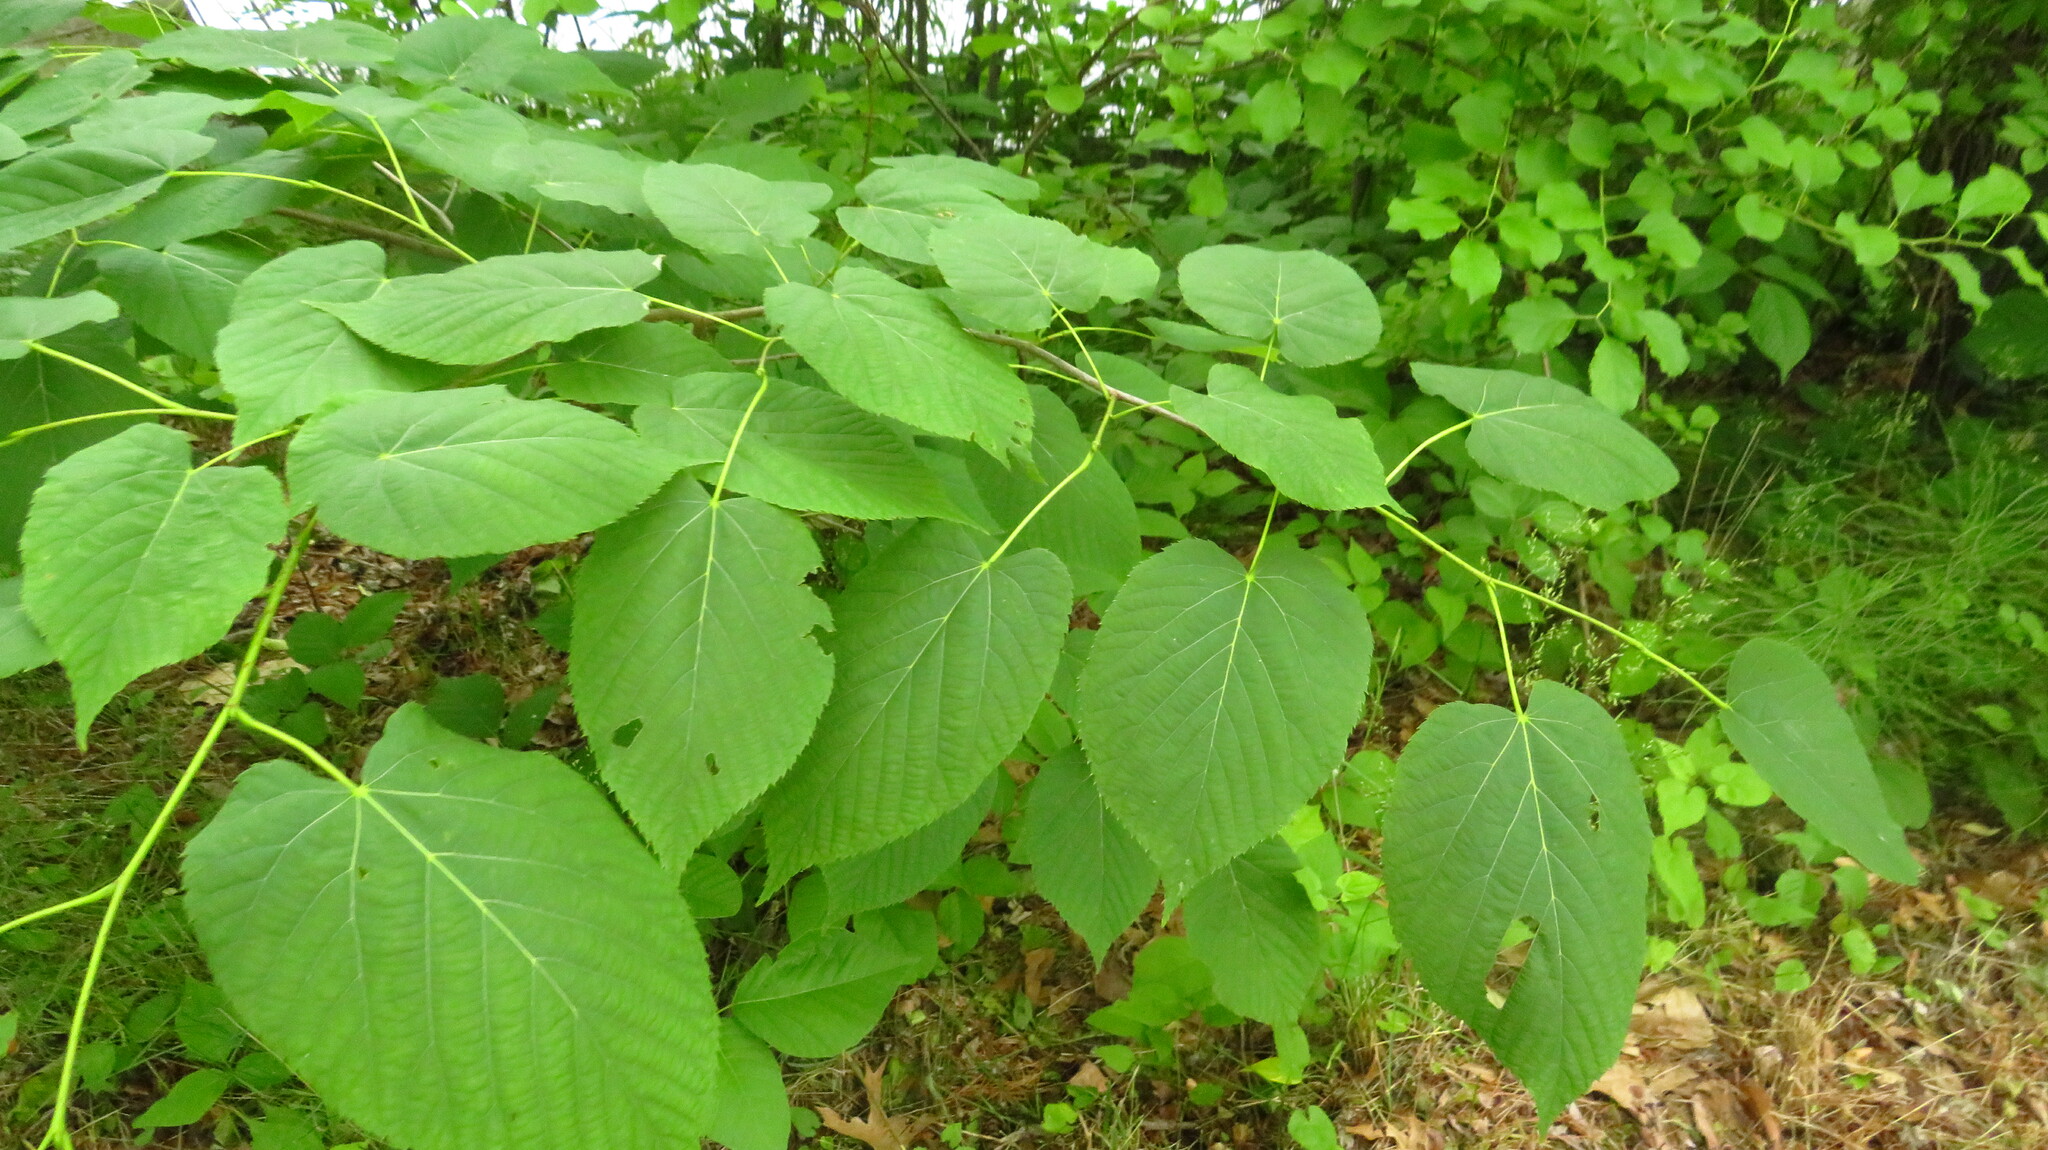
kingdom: Plantae
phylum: Tracheophyta
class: Magnoliopsida
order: Malvales
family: Malvaceae
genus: Tilia
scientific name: Tilia americana
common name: Basswood
